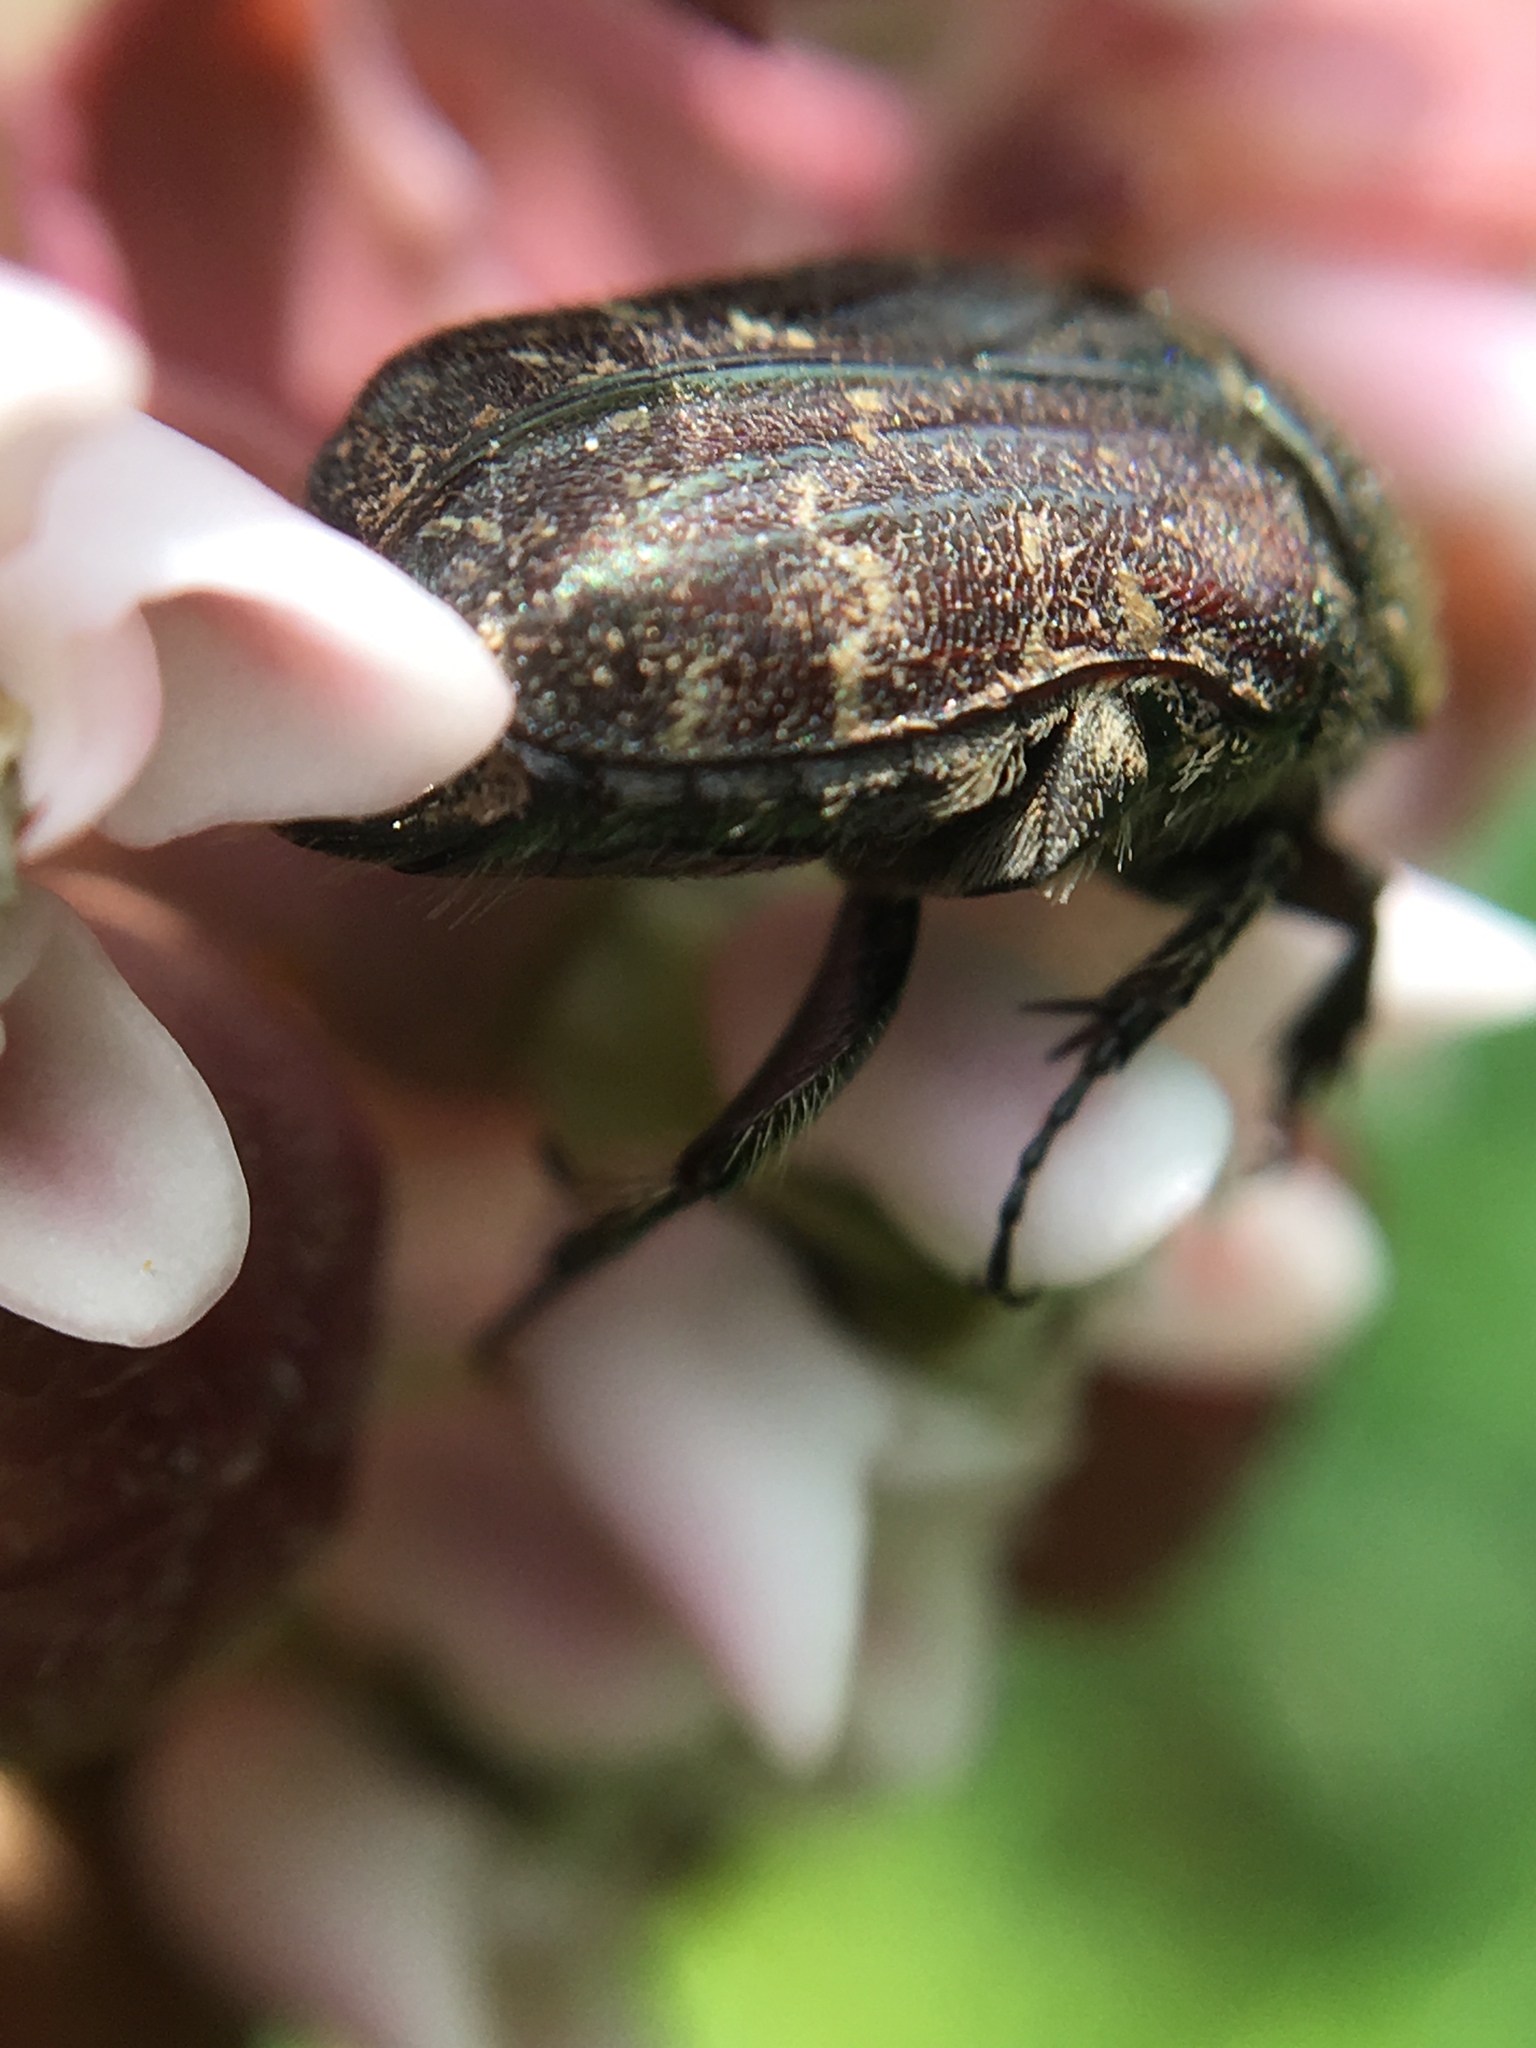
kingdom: Animalia
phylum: Arthropoda
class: Insecta
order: Coleoptera
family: Scarabaeidae
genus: Euphoria
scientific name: Euphoria sepulcralis
